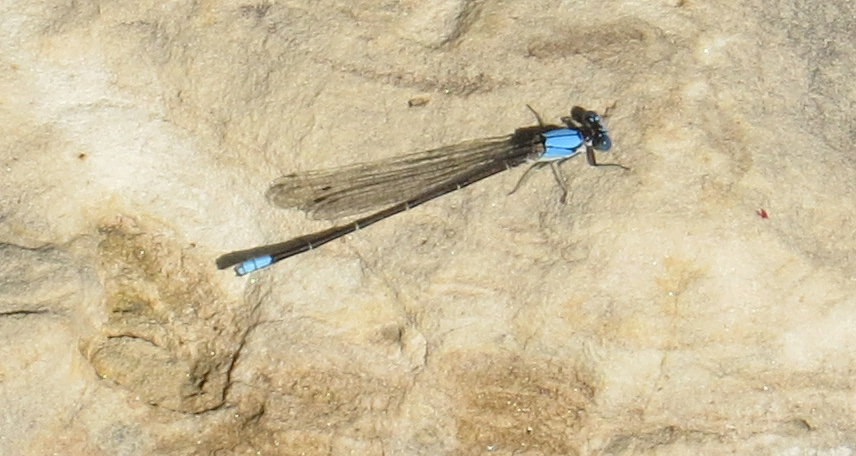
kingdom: Animalia
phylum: Arthropoda
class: Insecta
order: Odonata
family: Coenagrionidae
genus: Argia
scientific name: Argia apicalis
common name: Blue-fronted dancer
